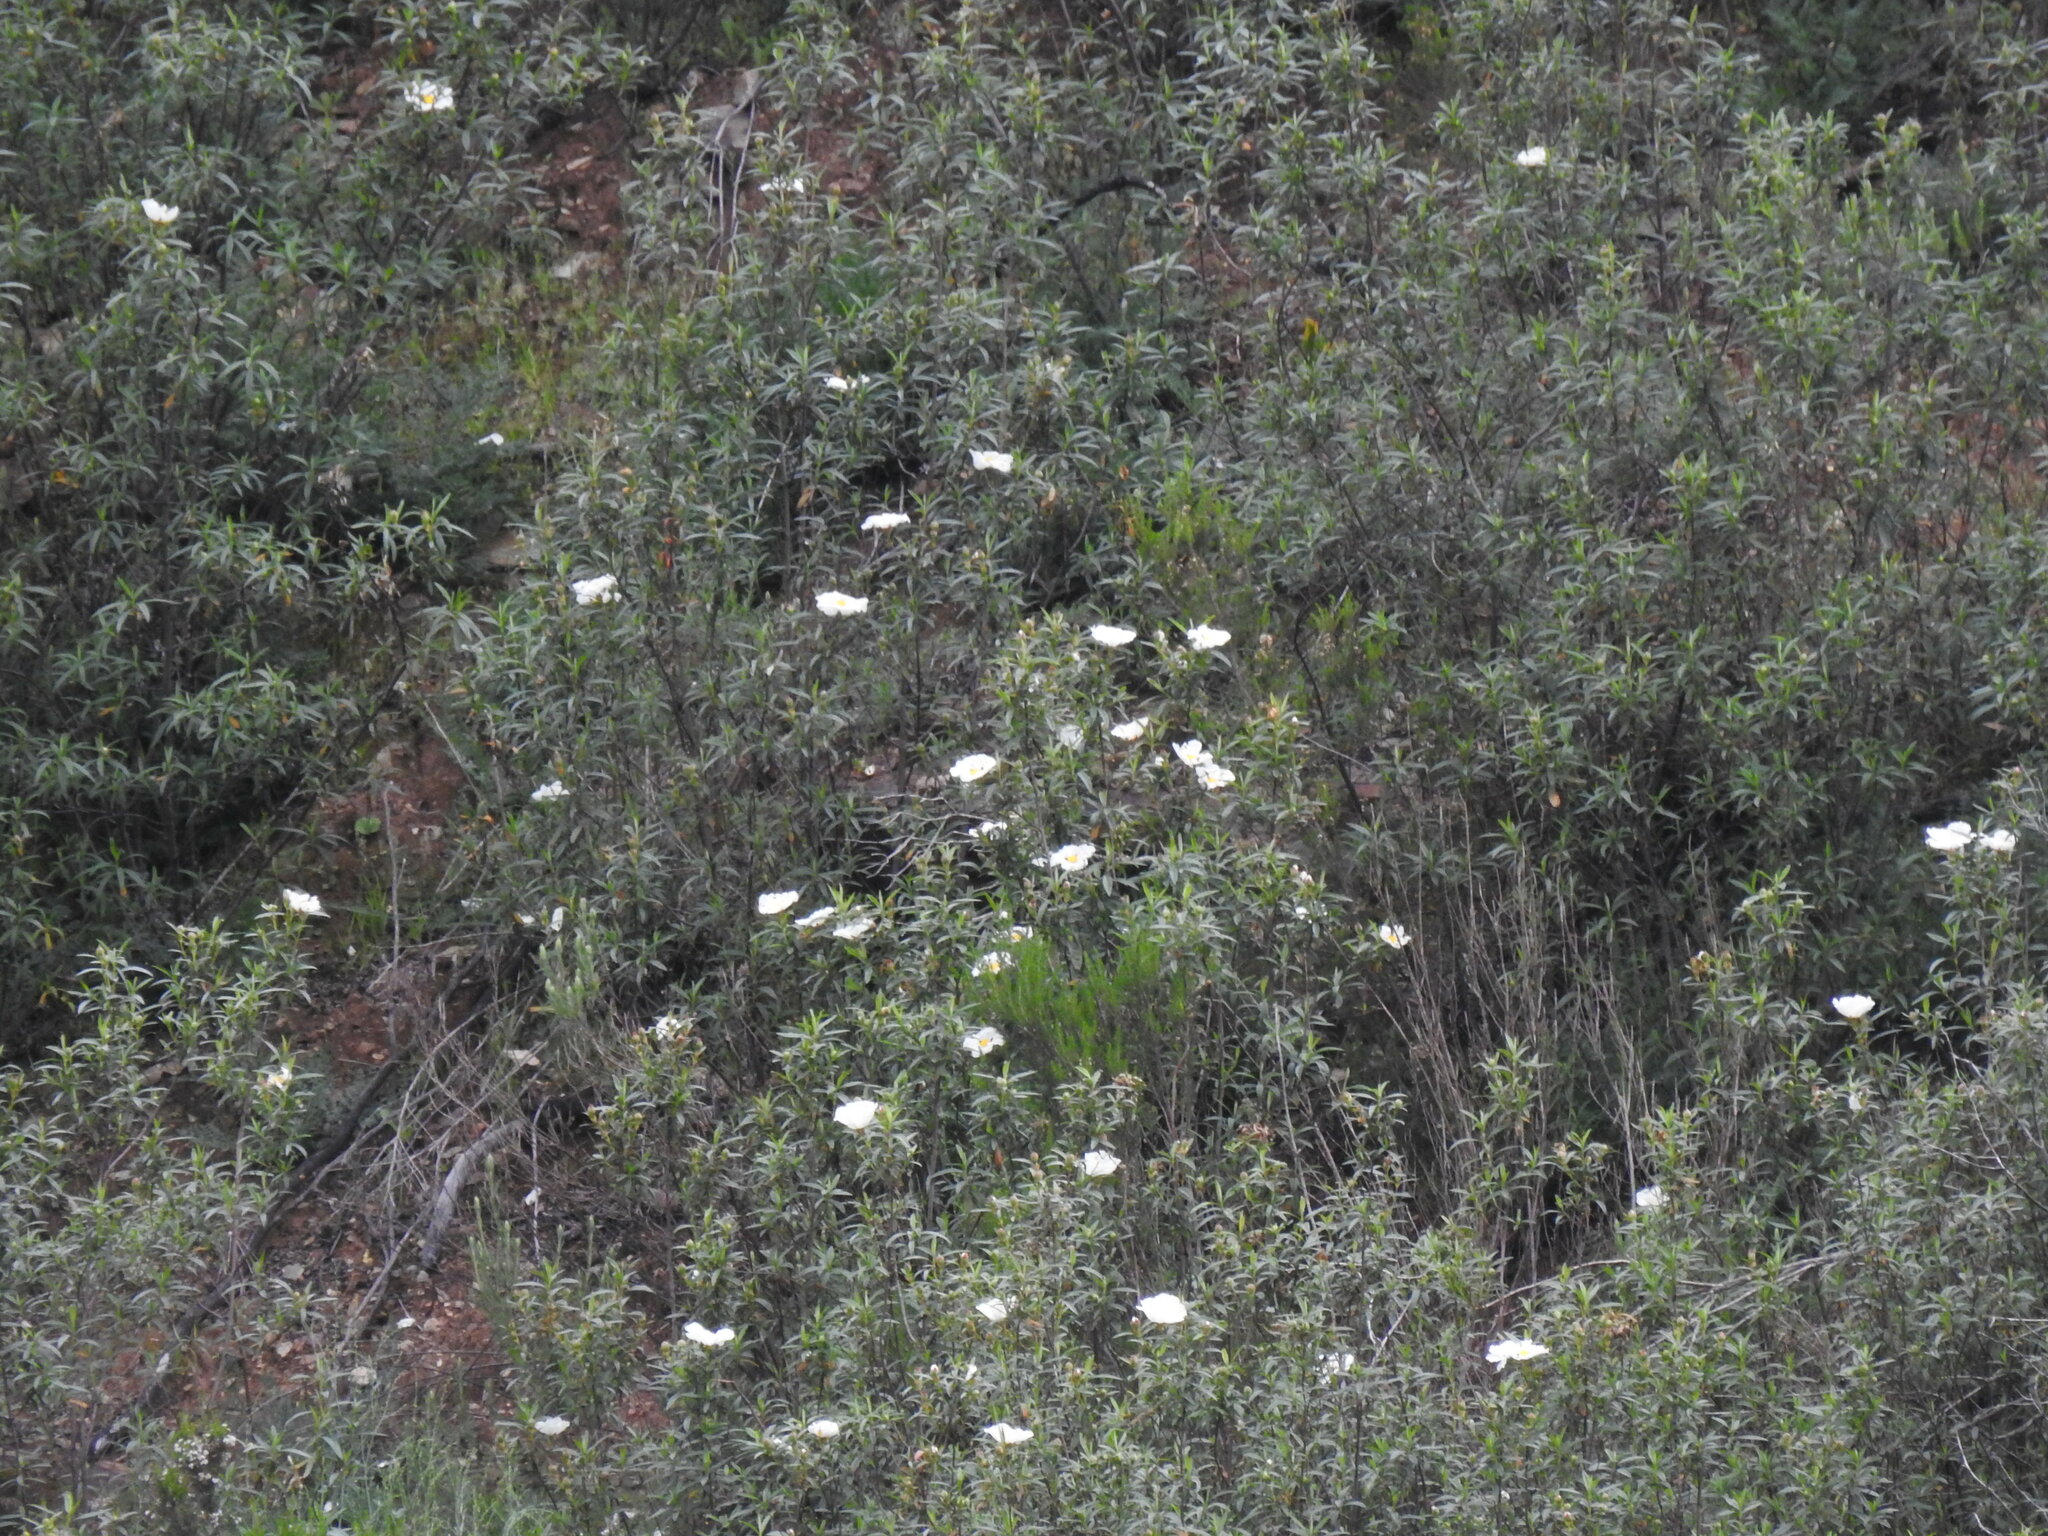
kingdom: Plantae
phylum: Tracheophyta
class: Magnoliopsida
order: Malvales
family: Cistaceae
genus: Cistus
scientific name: Cistus ladanifer
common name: Common gum cistus
